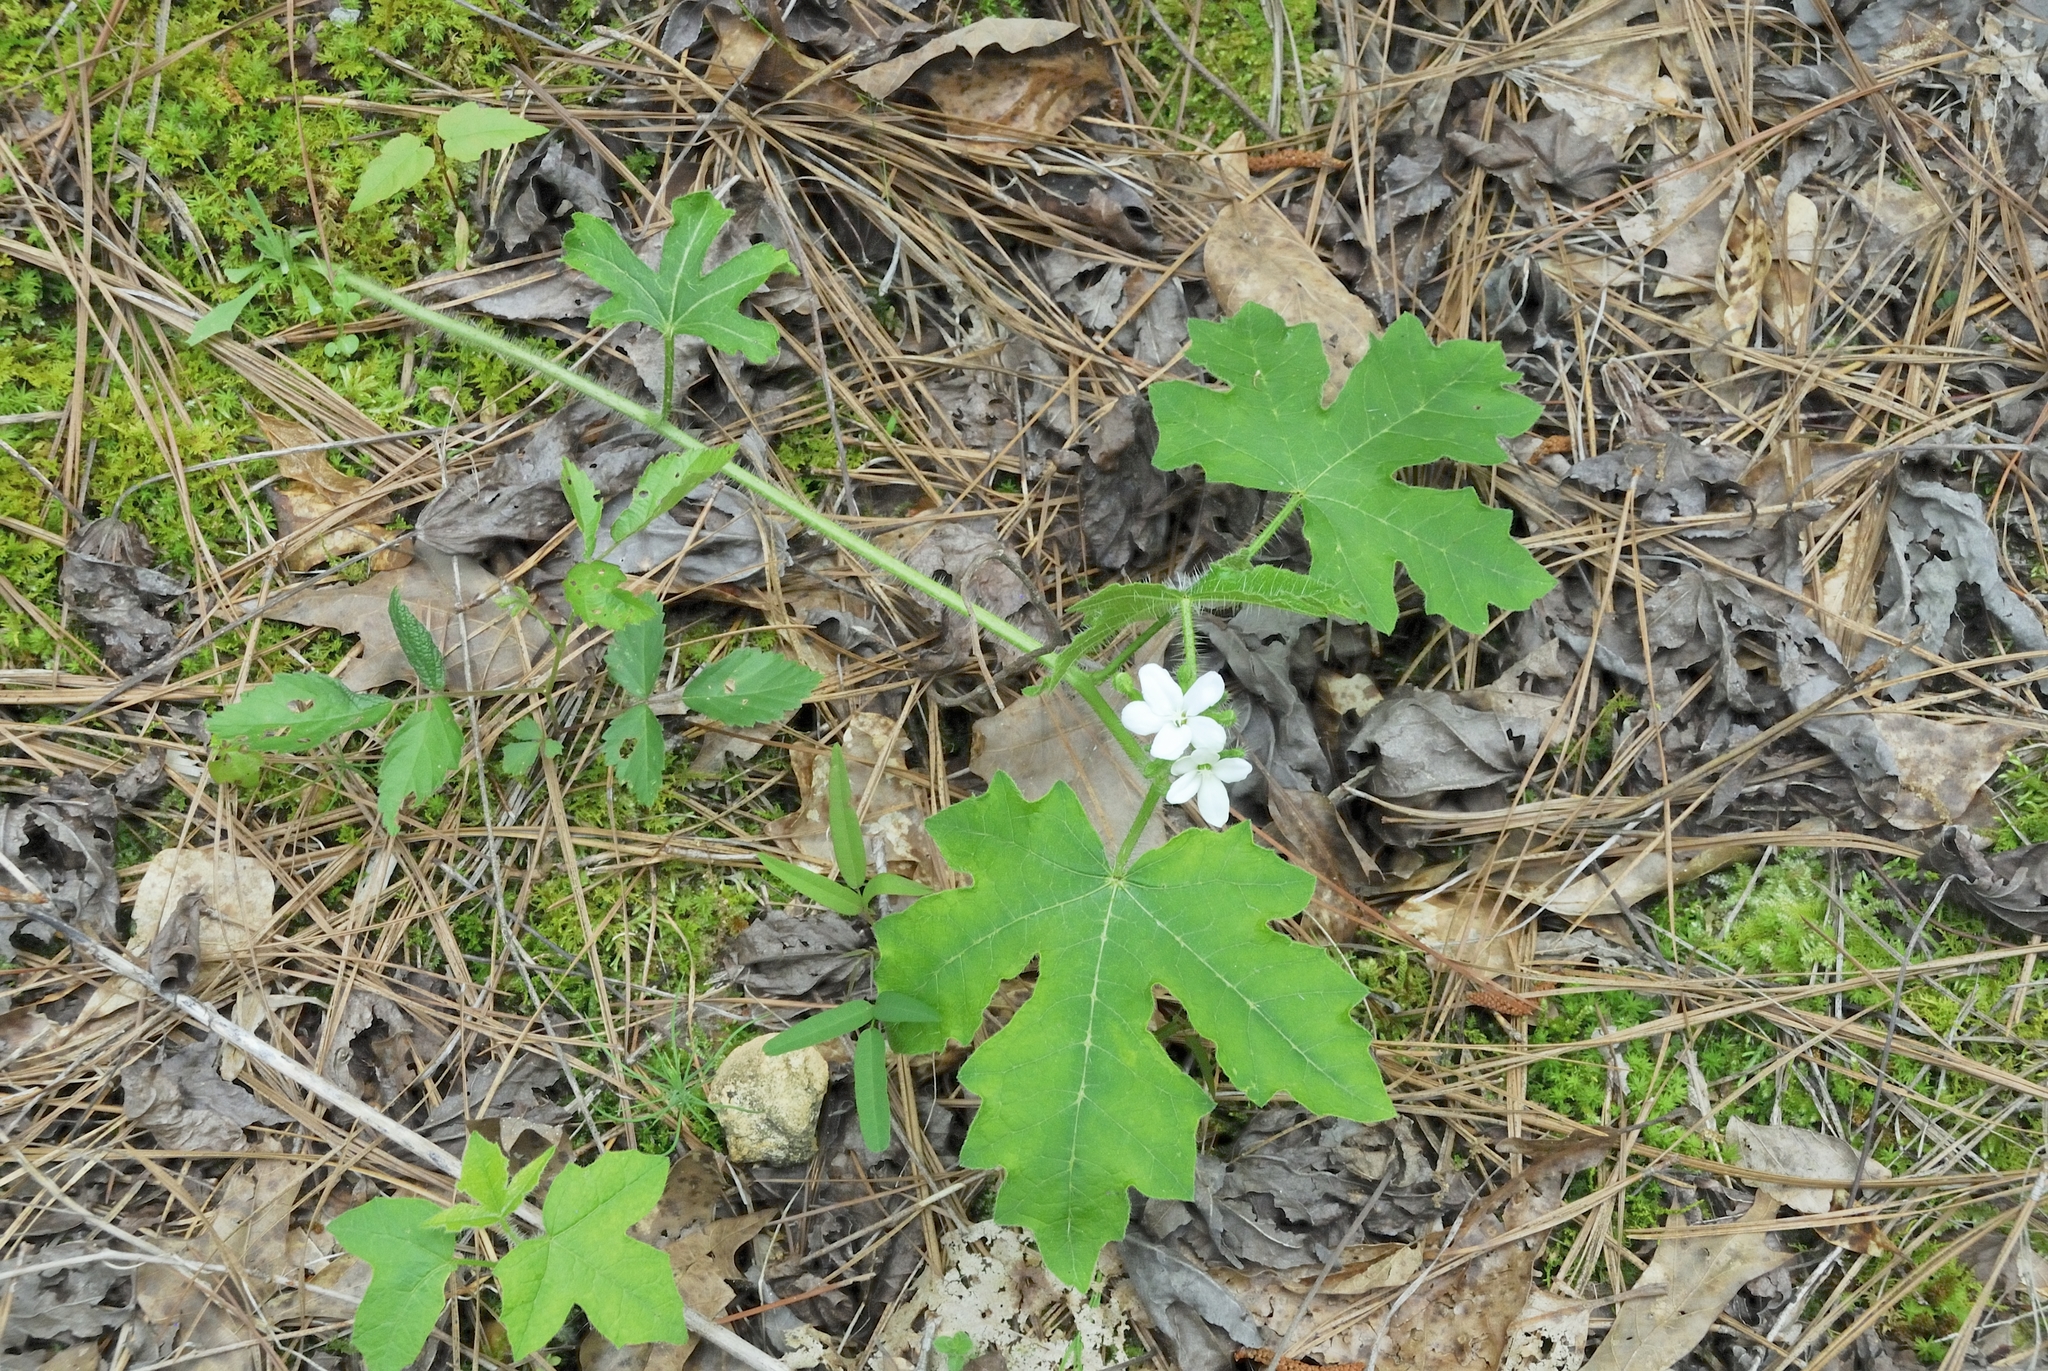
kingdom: Plantae
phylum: Tracheophyta
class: Magnoliopsida
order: Malpighiales
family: Euphorbiaceae
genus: Cnidoscolus
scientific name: Cnidoscolus stimulosus
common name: Bull-nettle
